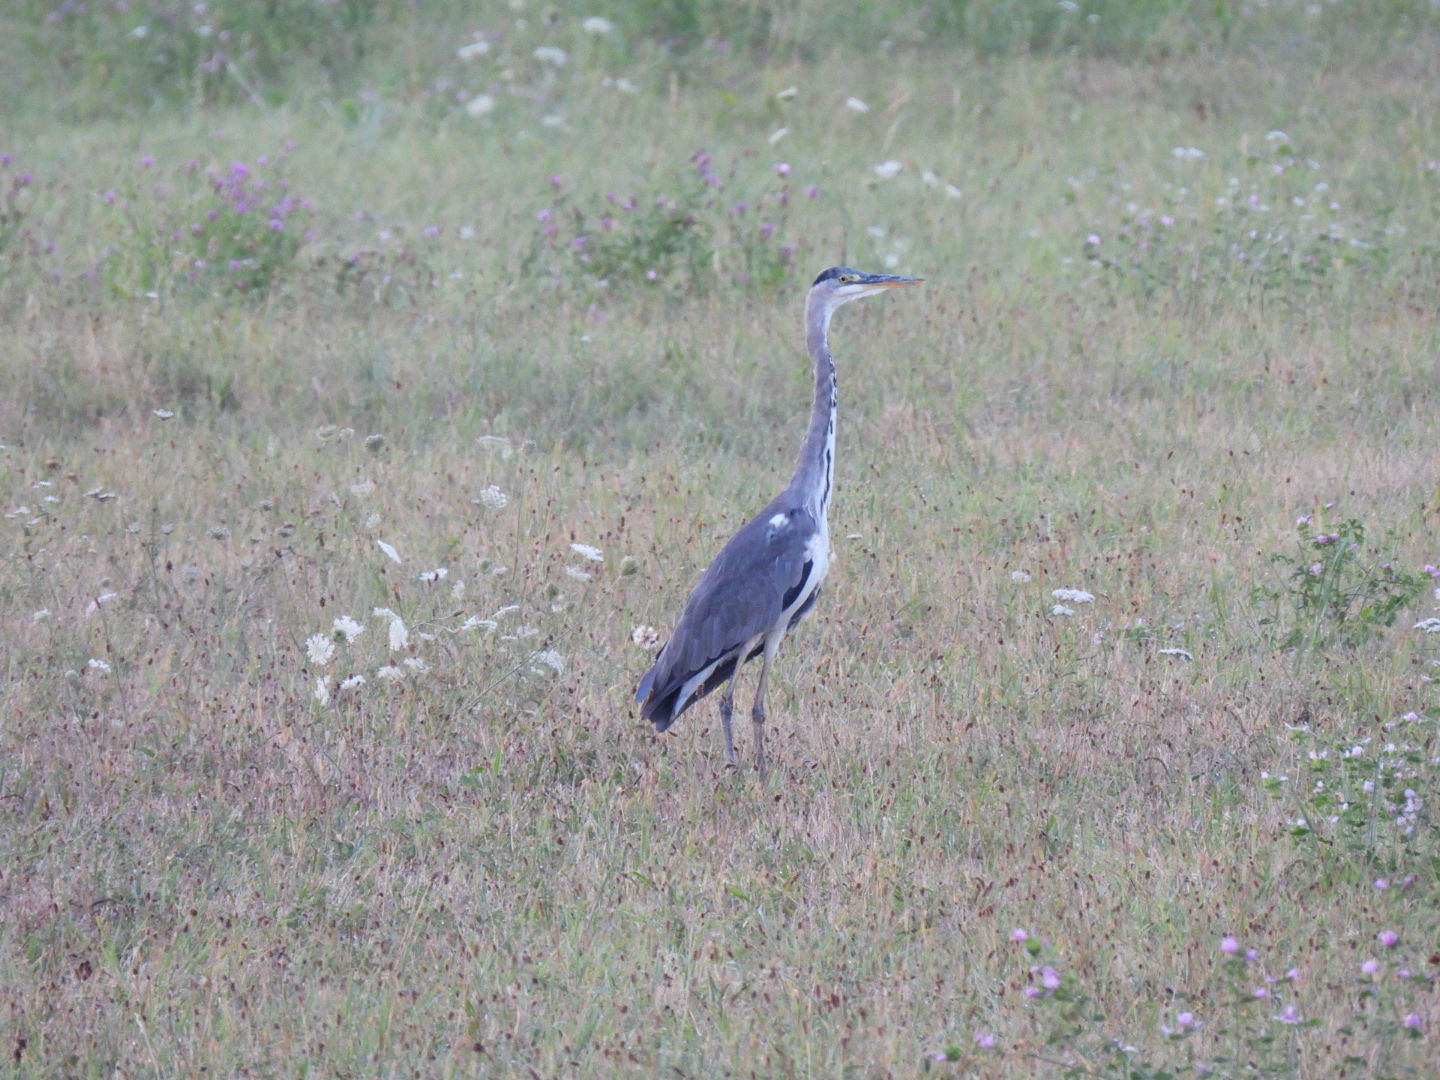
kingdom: Animalia
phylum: Chordata
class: Aves
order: Pelecaniformes
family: Ardeidae
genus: Ardea
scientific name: Ardea cinerea
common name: Grey heron
